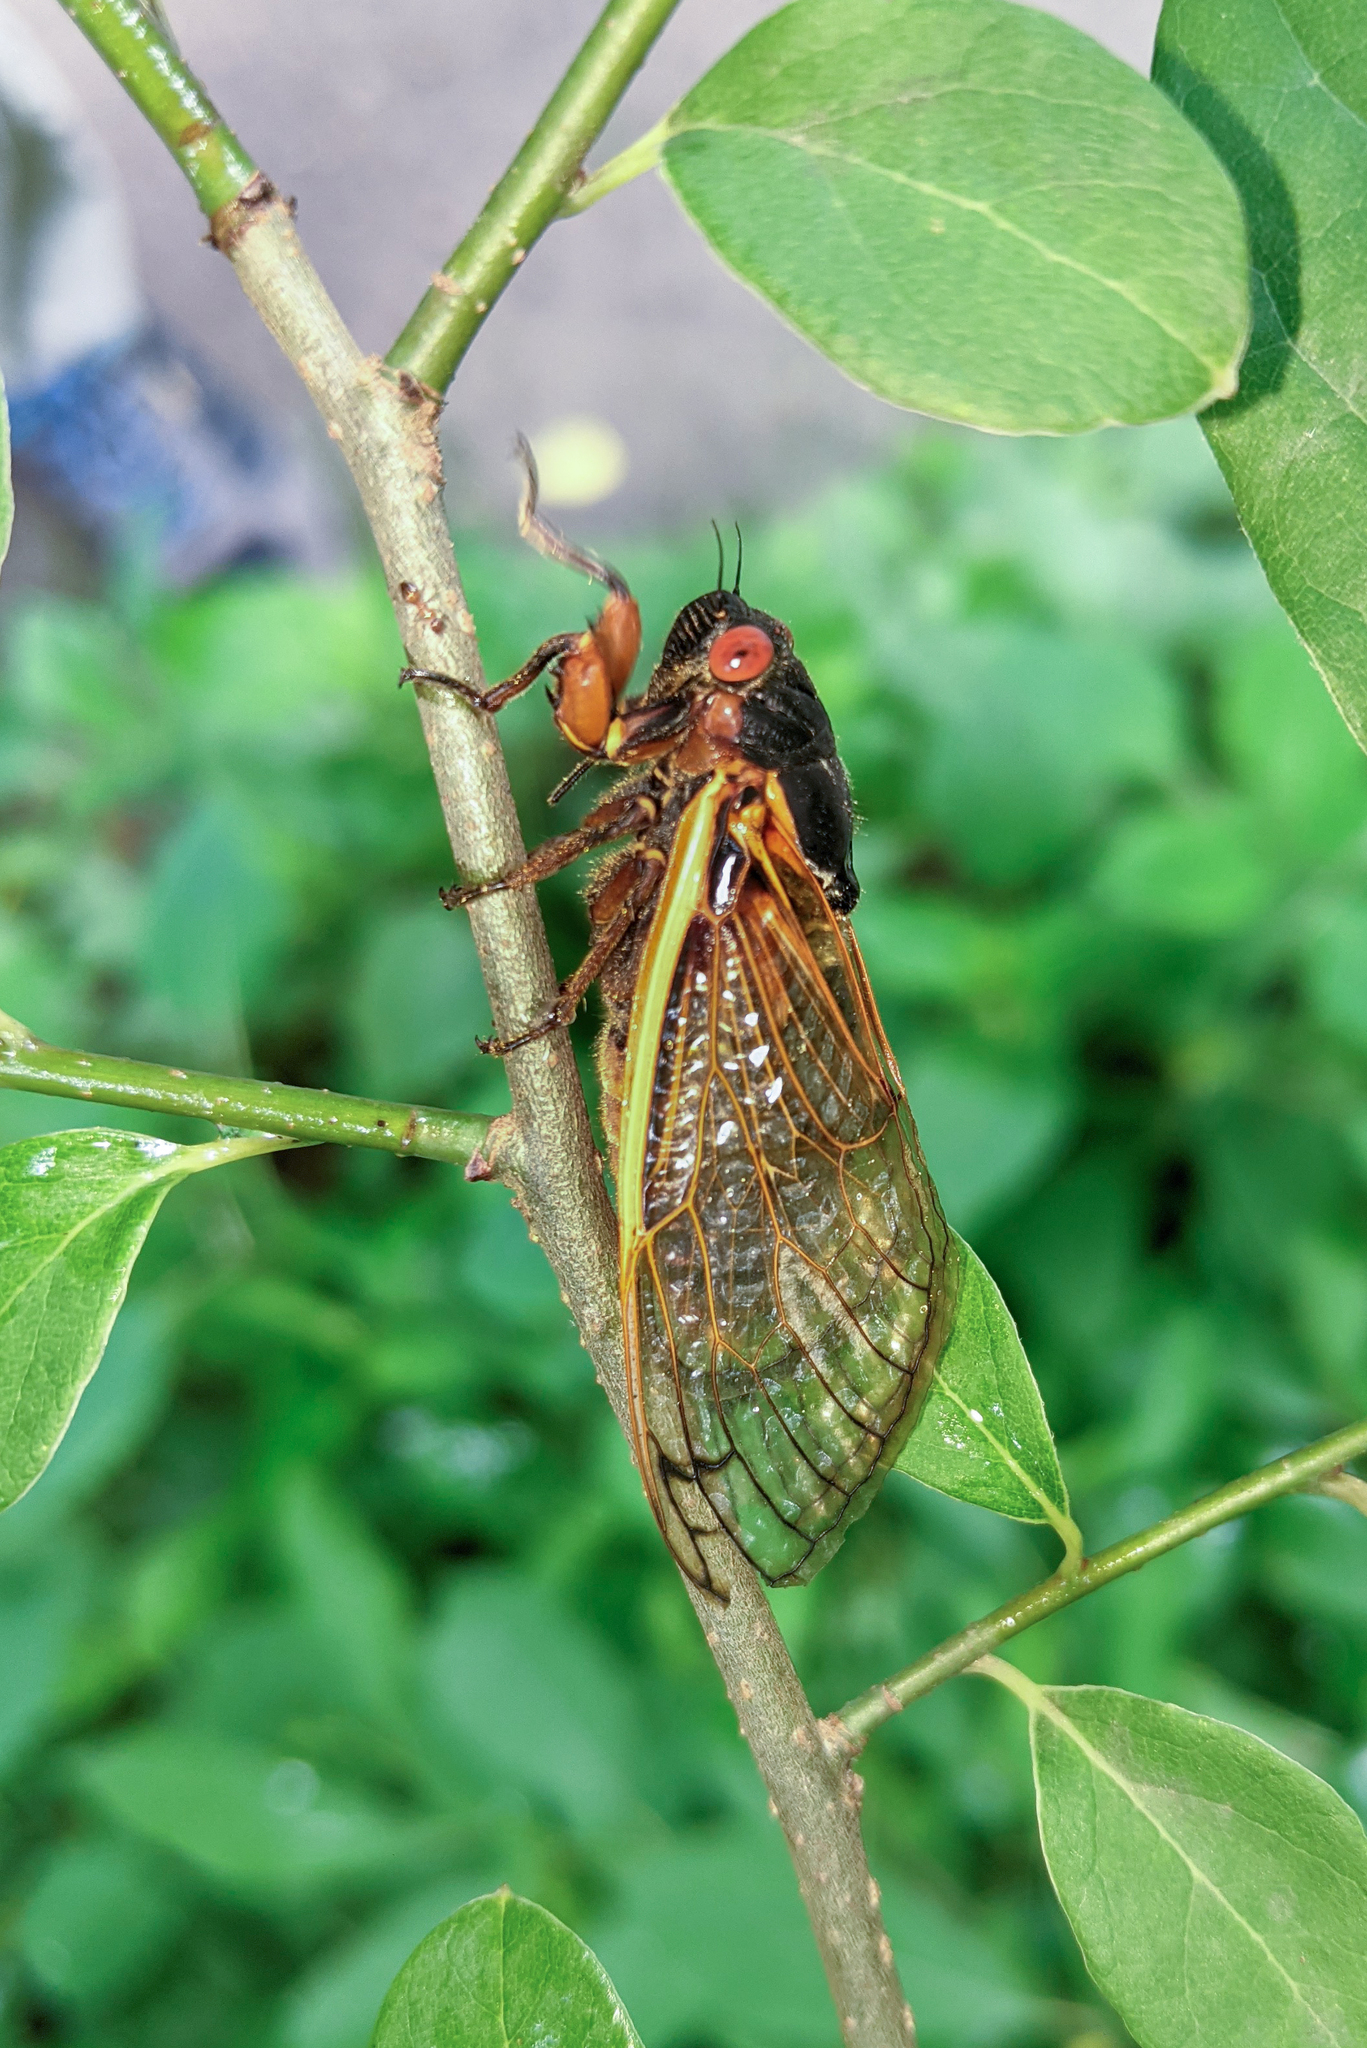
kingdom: Animalia
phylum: Arthropoda
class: Insecta
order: Hemiptera
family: Cicadidae
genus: Magicicada
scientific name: Magicicada septendecim
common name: Periodical cicada
